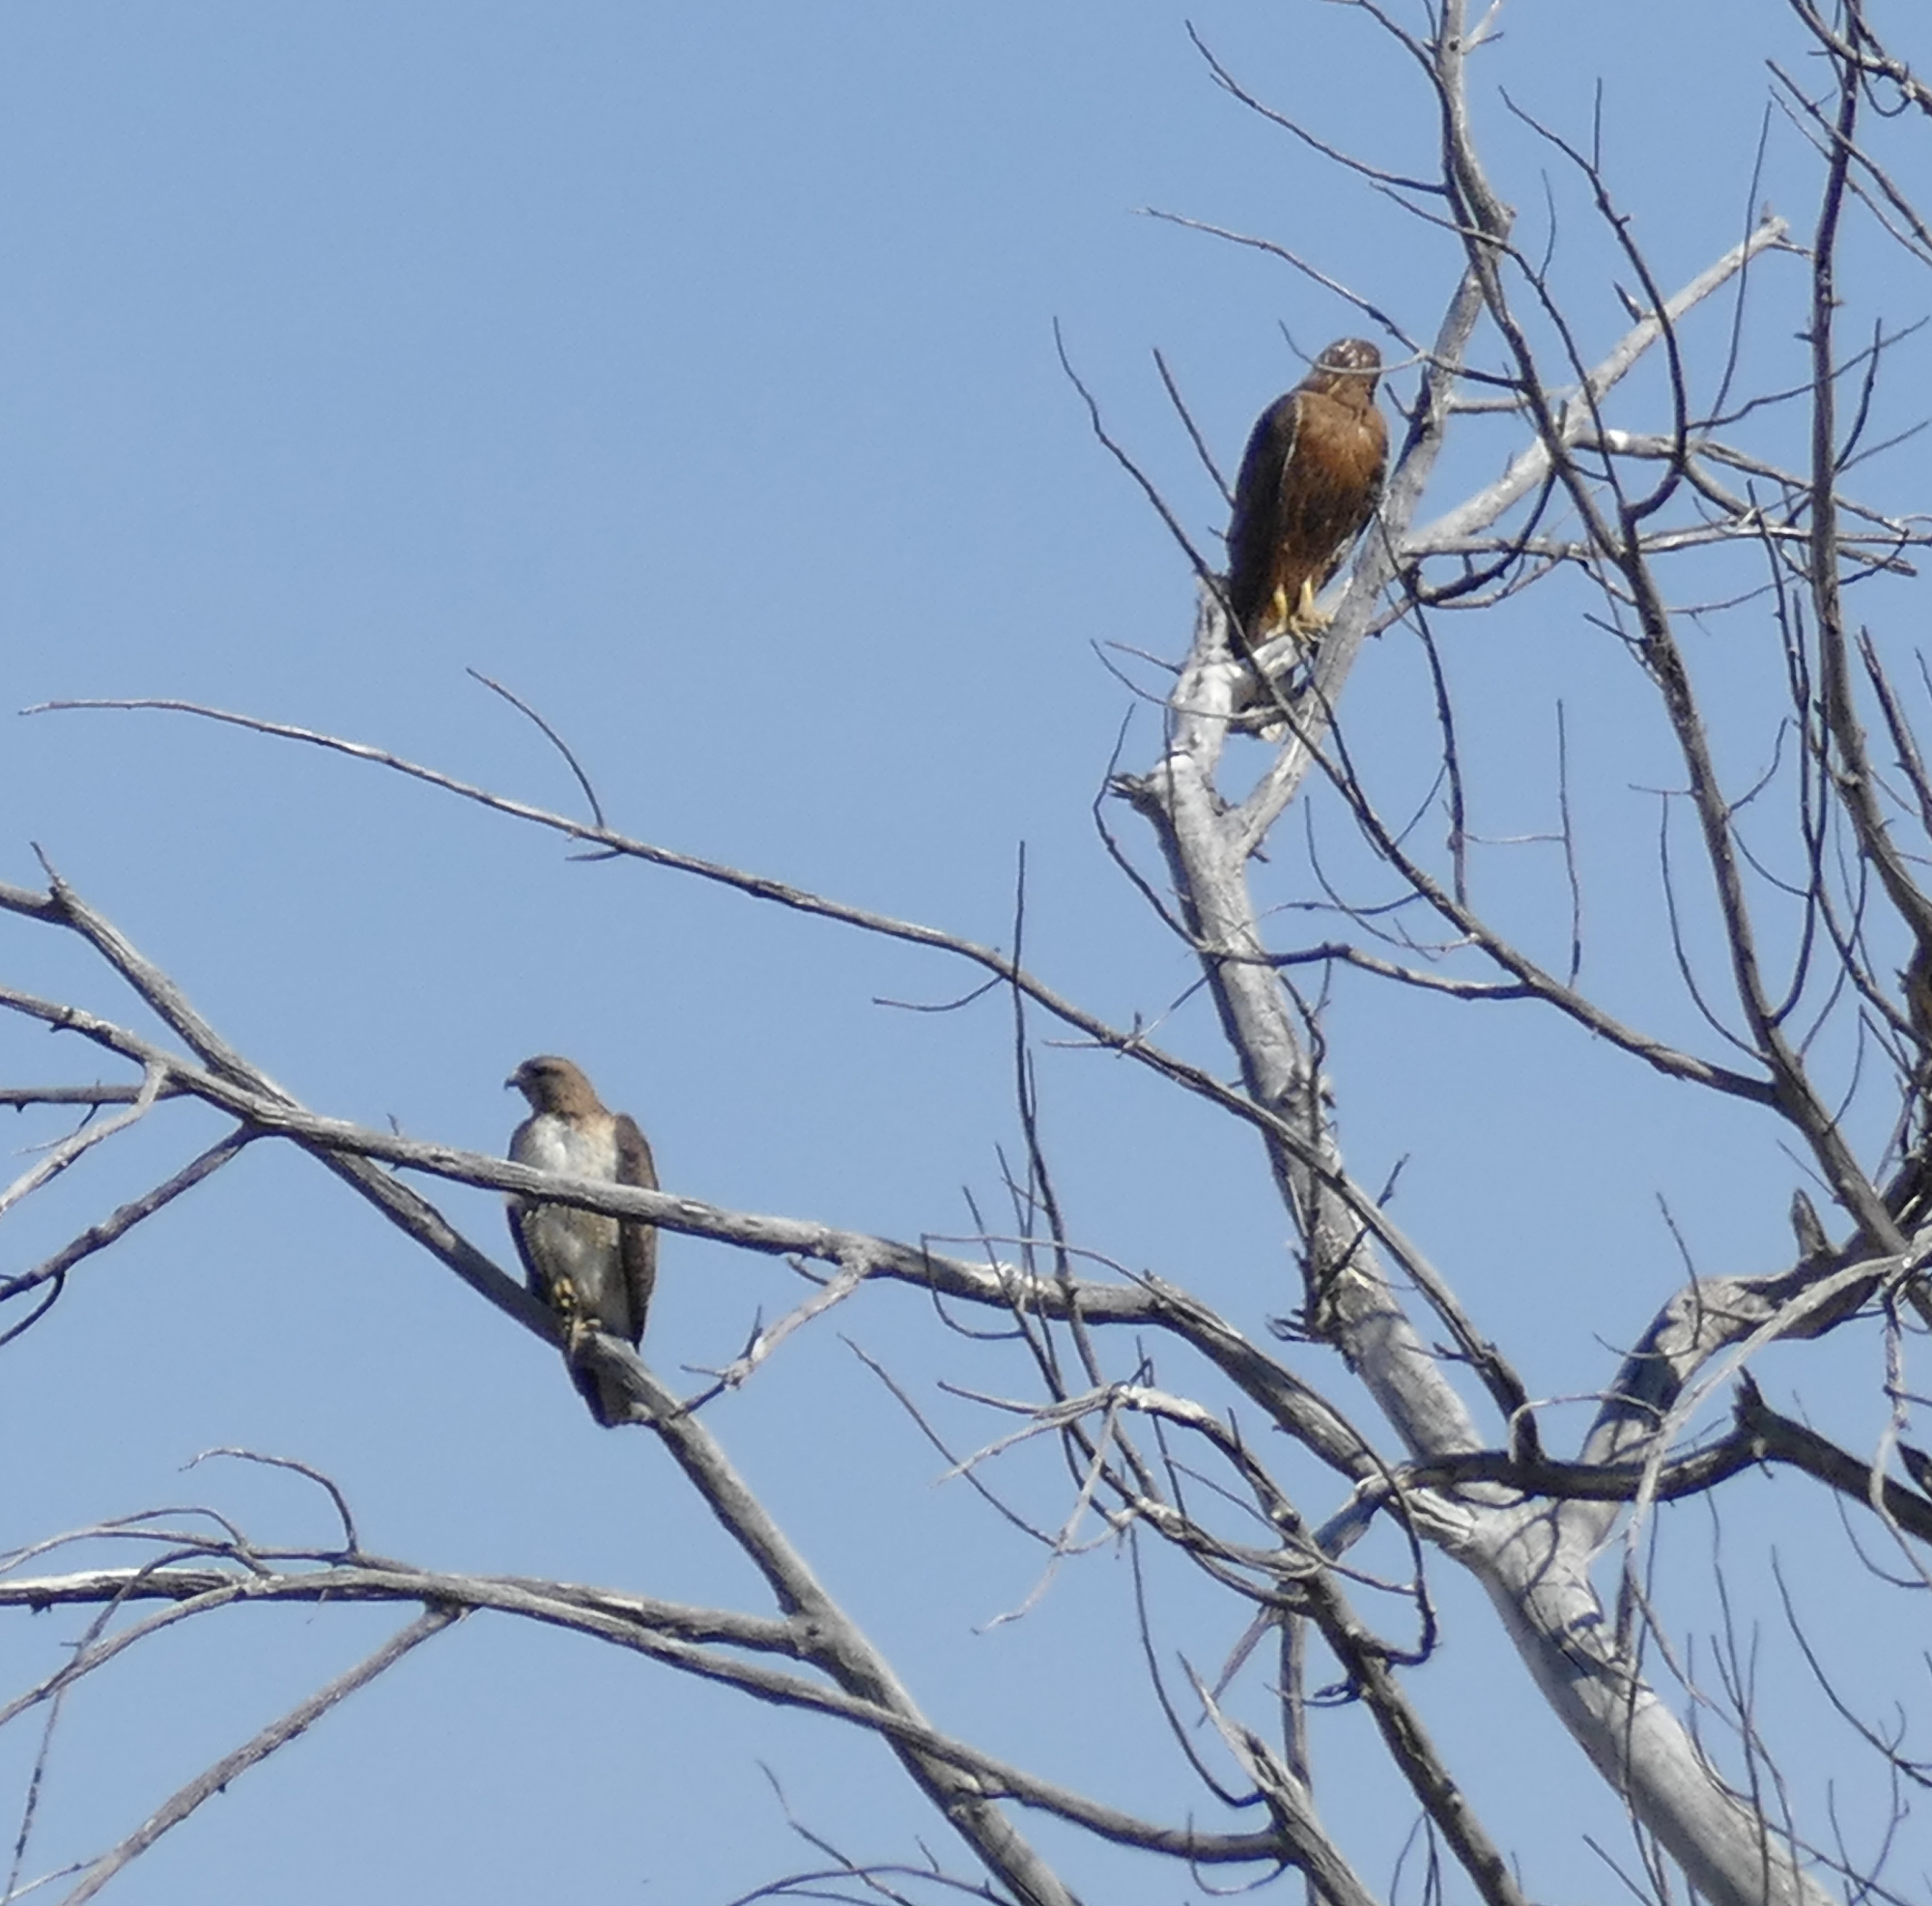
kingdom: Animalia
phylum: Chordata
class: Aves
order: Accipitriformes
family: Accipitridae
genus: Buteo
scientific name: Buteo jamaicensis
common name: Red-tailed hawk
